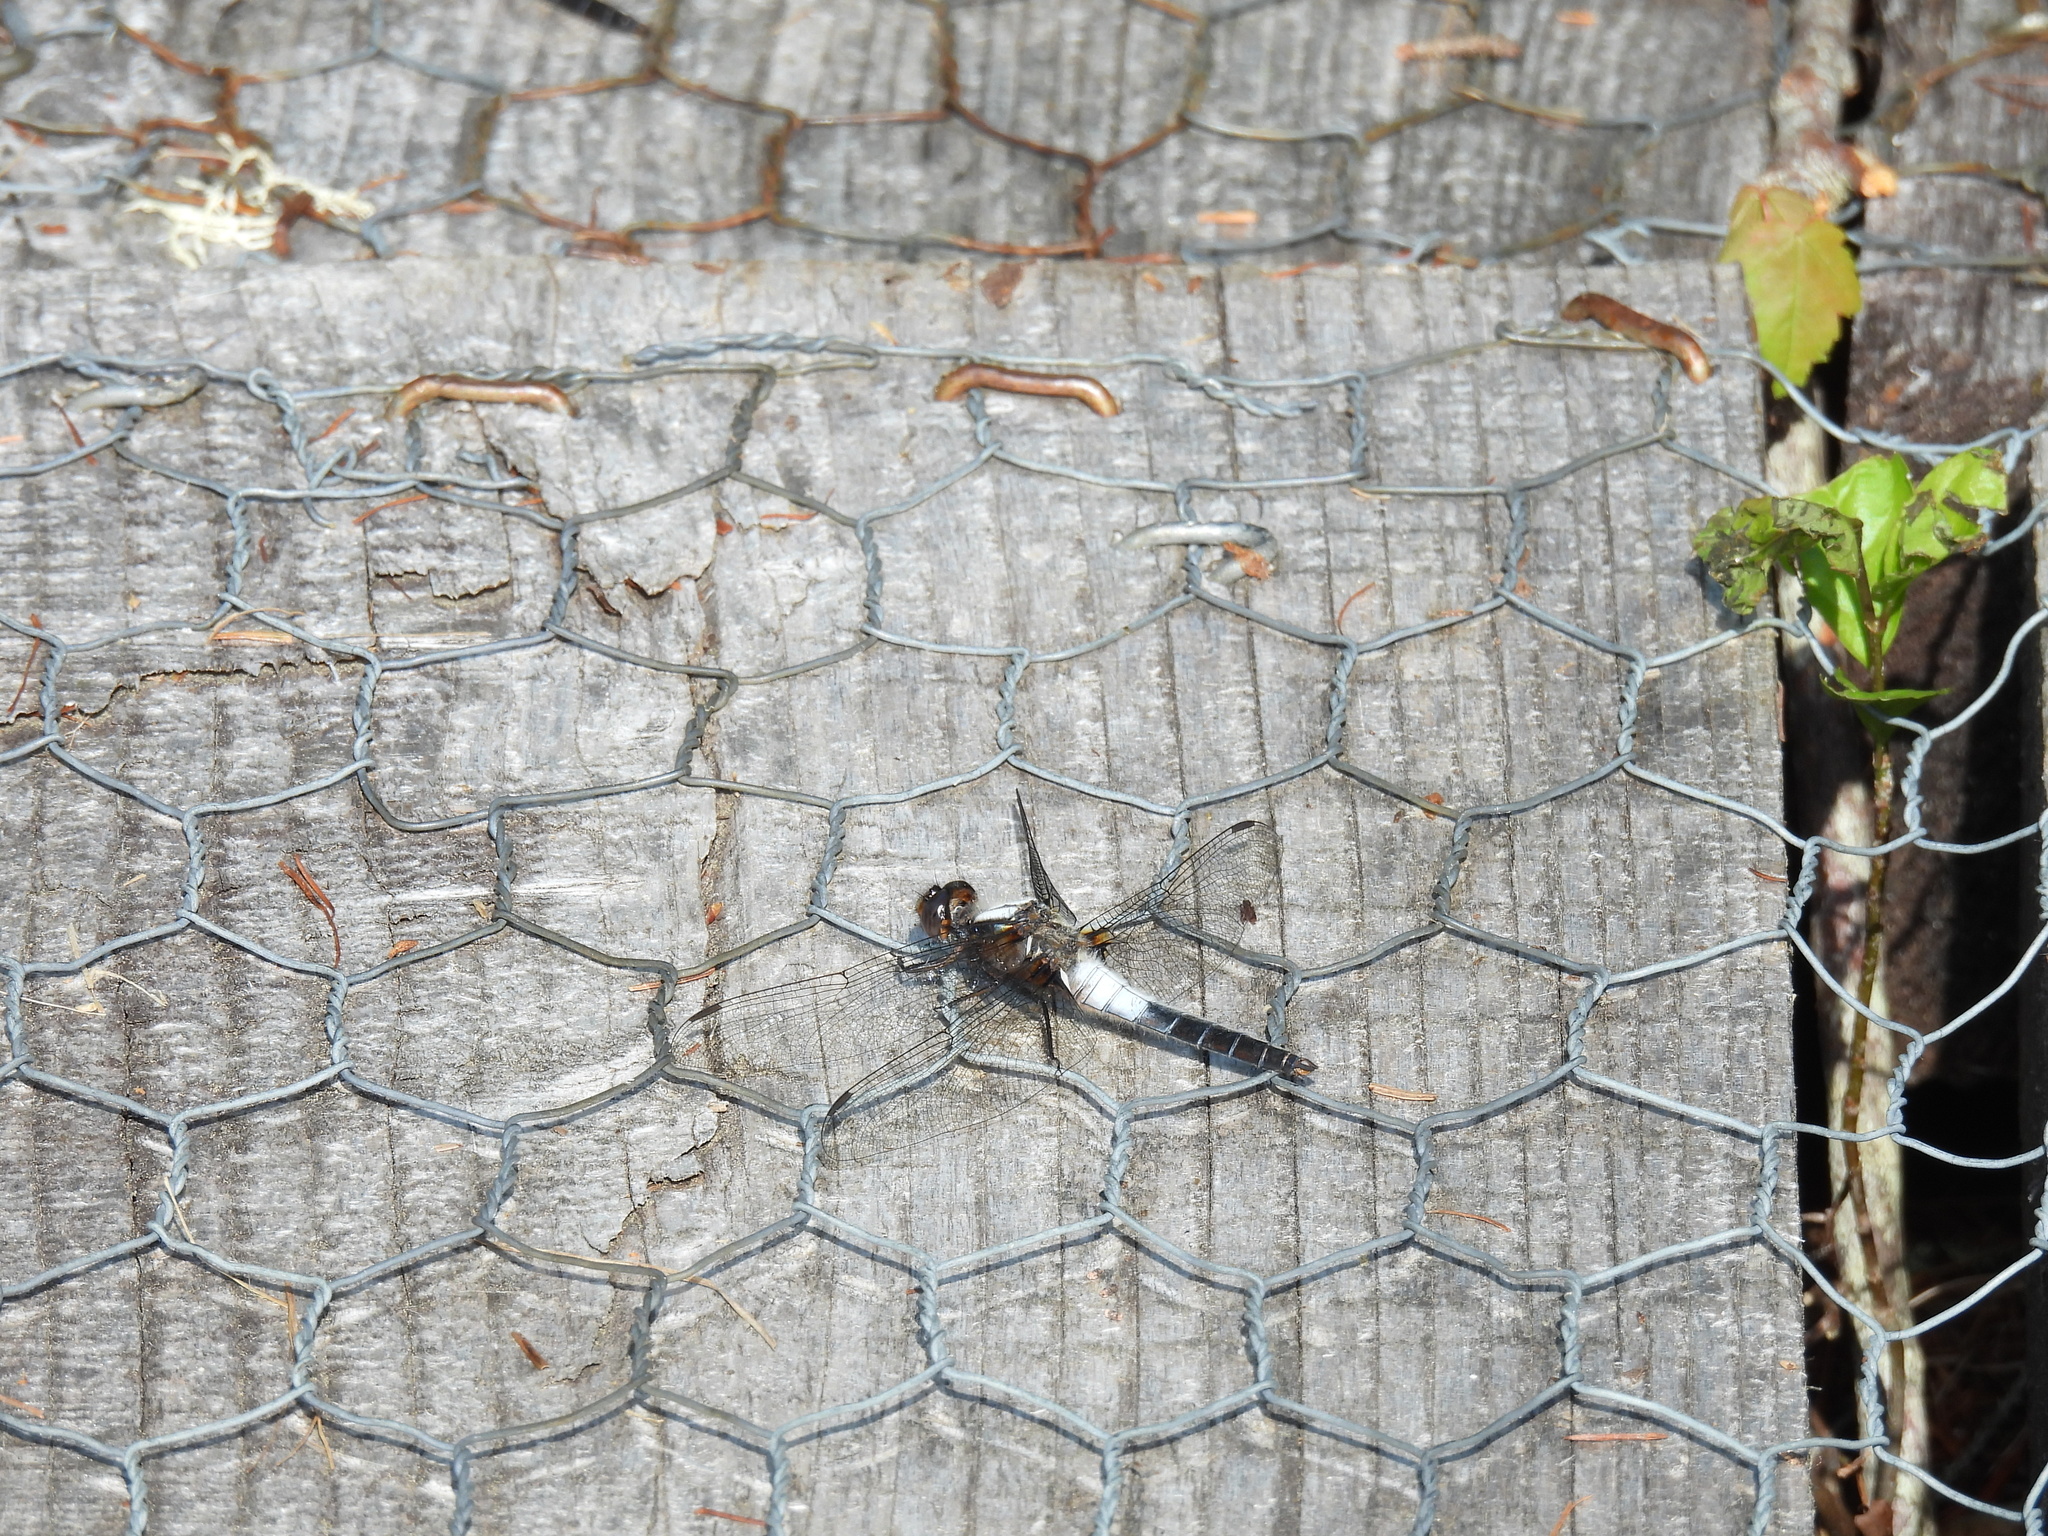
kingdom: Animalia
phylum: Arthropoda
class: Insecta
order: Odonata
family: Libellulidae
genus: Ladona
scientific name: Ladona julia
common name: Chalk-fronted corporal
